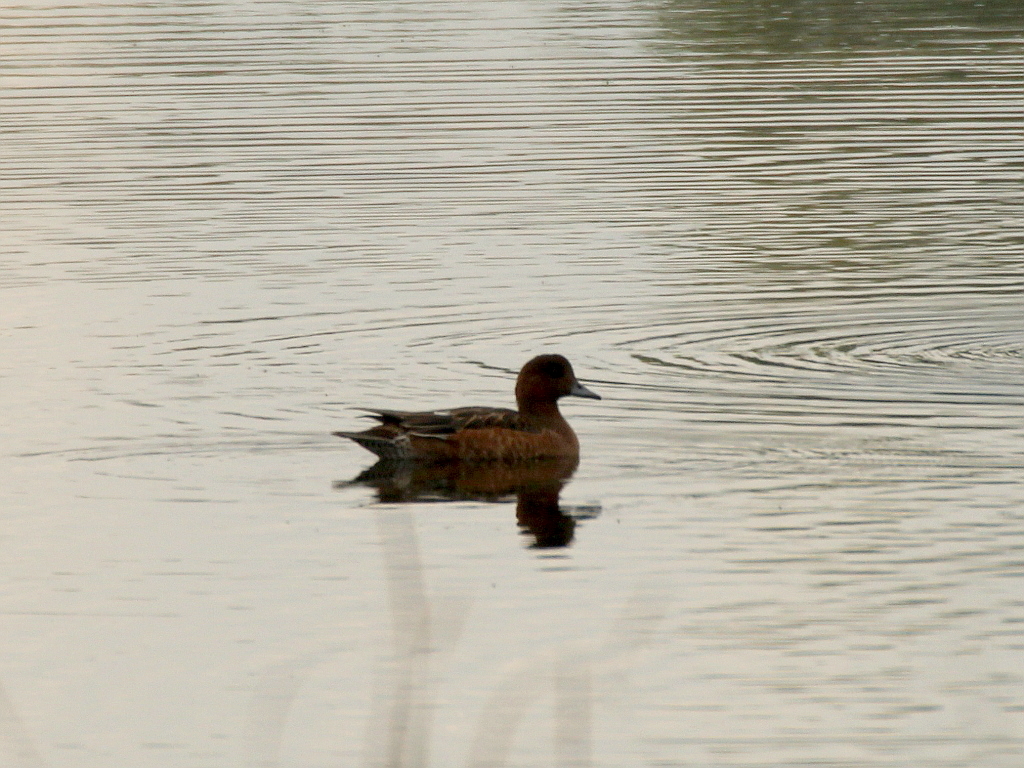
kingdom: Animalia
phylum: Chordata
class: Aves
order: Anseriformes
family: Anatidae
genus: Mareca
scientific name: Mareca penelope
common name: Eurasian wigeon
